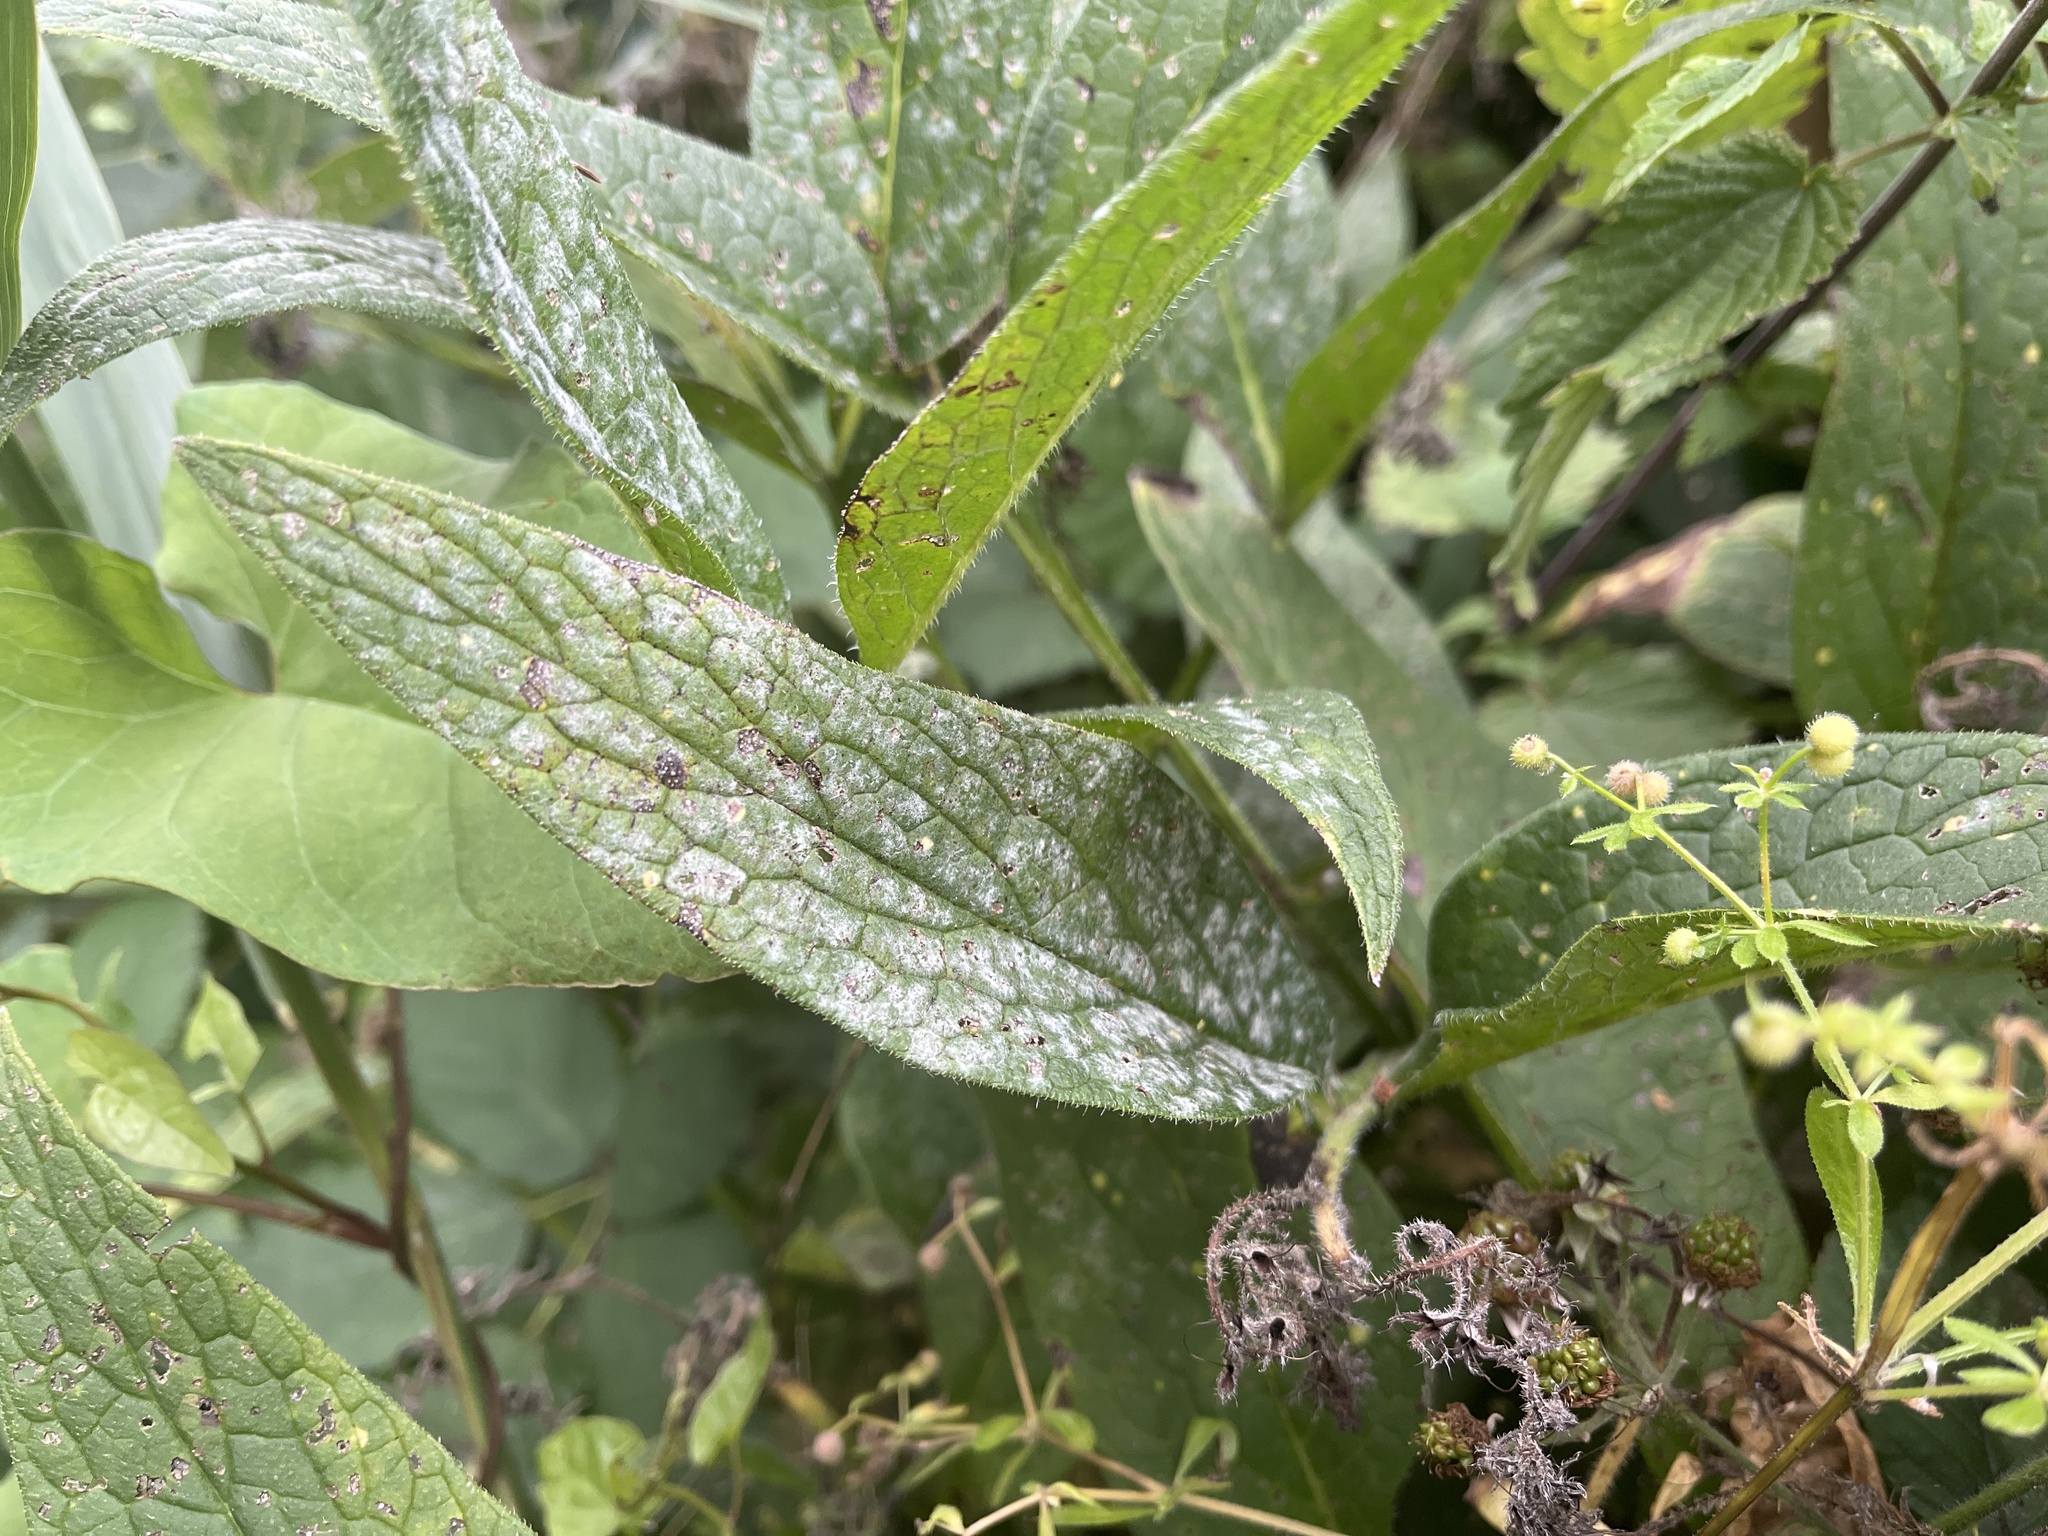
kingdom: Fungi
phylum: Ascomycota
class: Leotiomycetes
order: Helotiales
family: Erysiphaceae
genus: Golovinomyces
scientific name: Golovinomyces asperifoliorum
